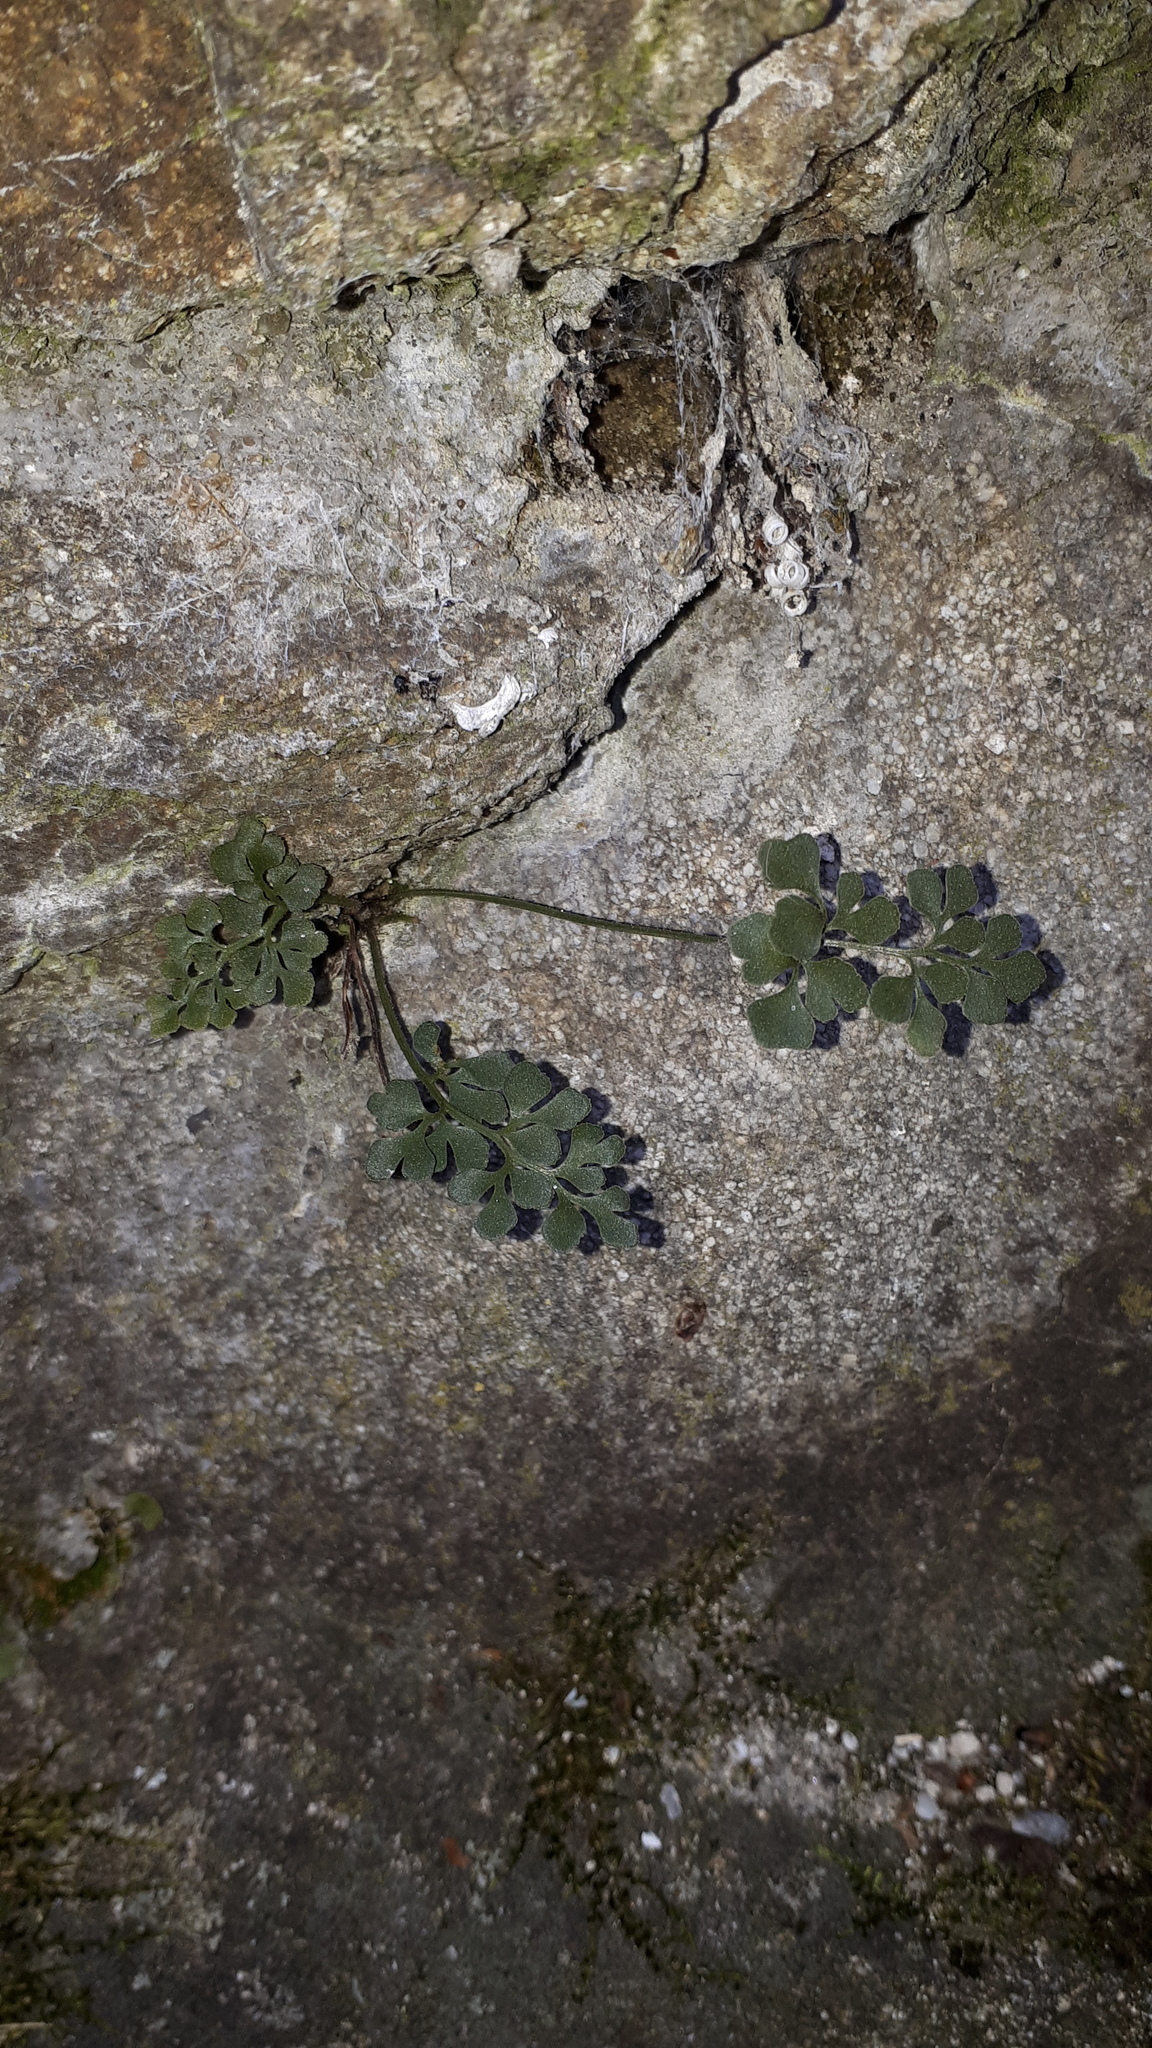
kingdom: Plantae
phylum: Tracheophyta
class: Polypodiopsida
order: Polypodiales
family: Aspleniaceae
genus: Asplenium
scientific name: Asplenium ruta-muraria
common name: Wall-rue
